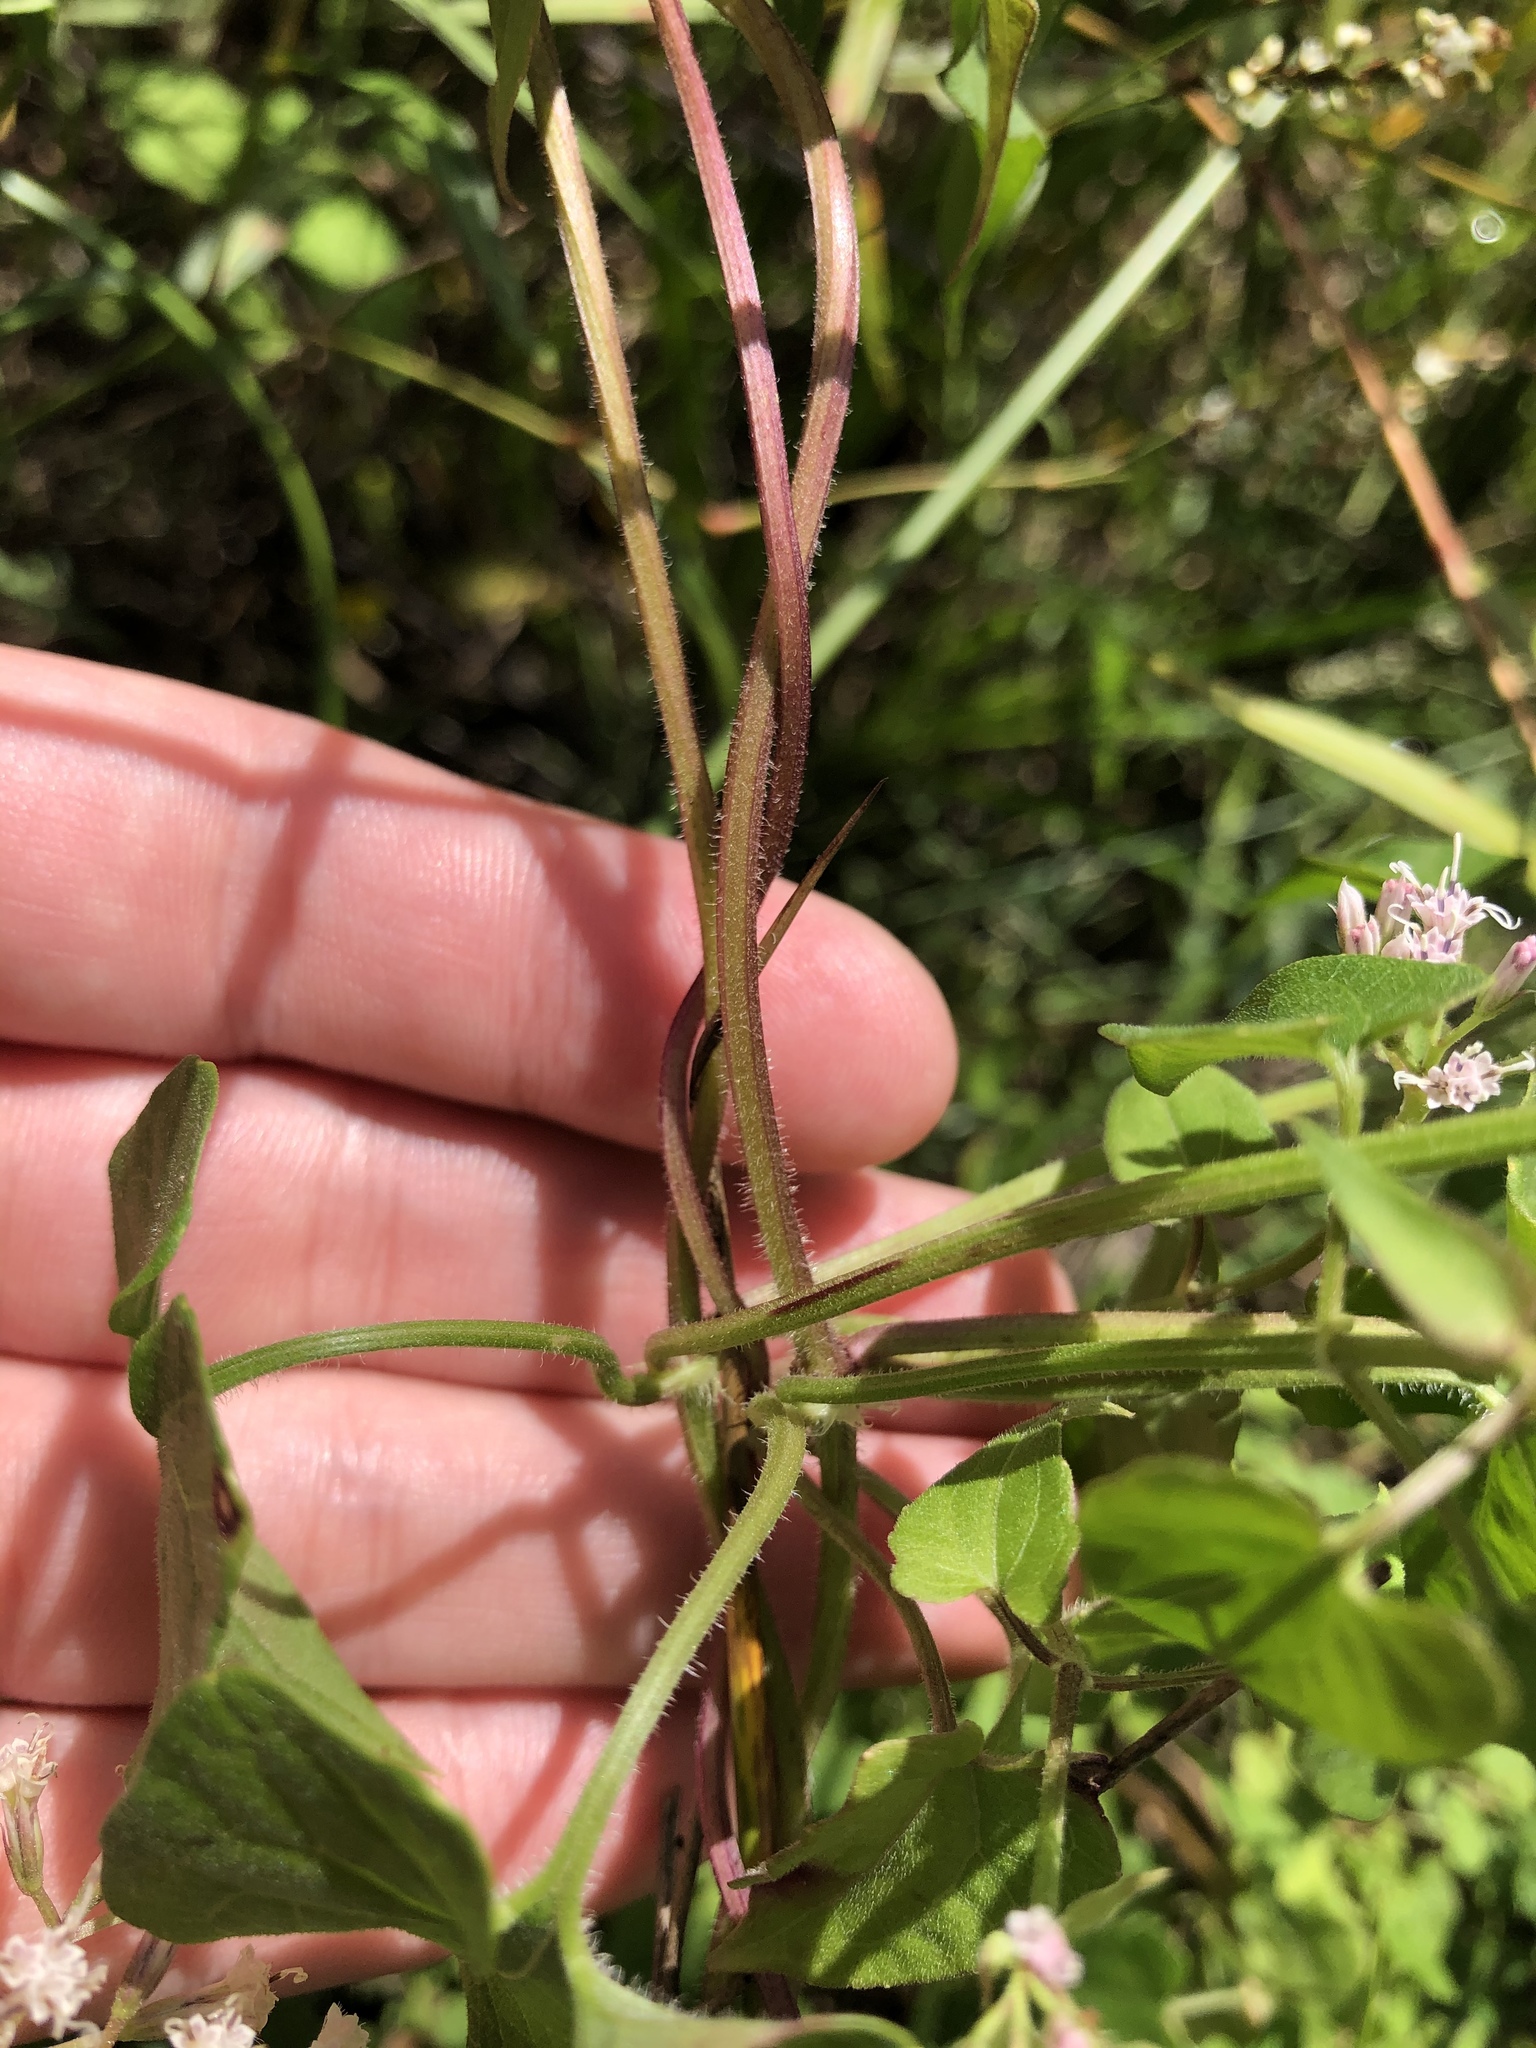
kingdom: Plantae
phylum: Tracheophyta
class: Magnoliopsida
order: Asterales
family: Asteraceae
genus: Mikania
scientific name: Mikania scandens
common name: Climbing hempvine
